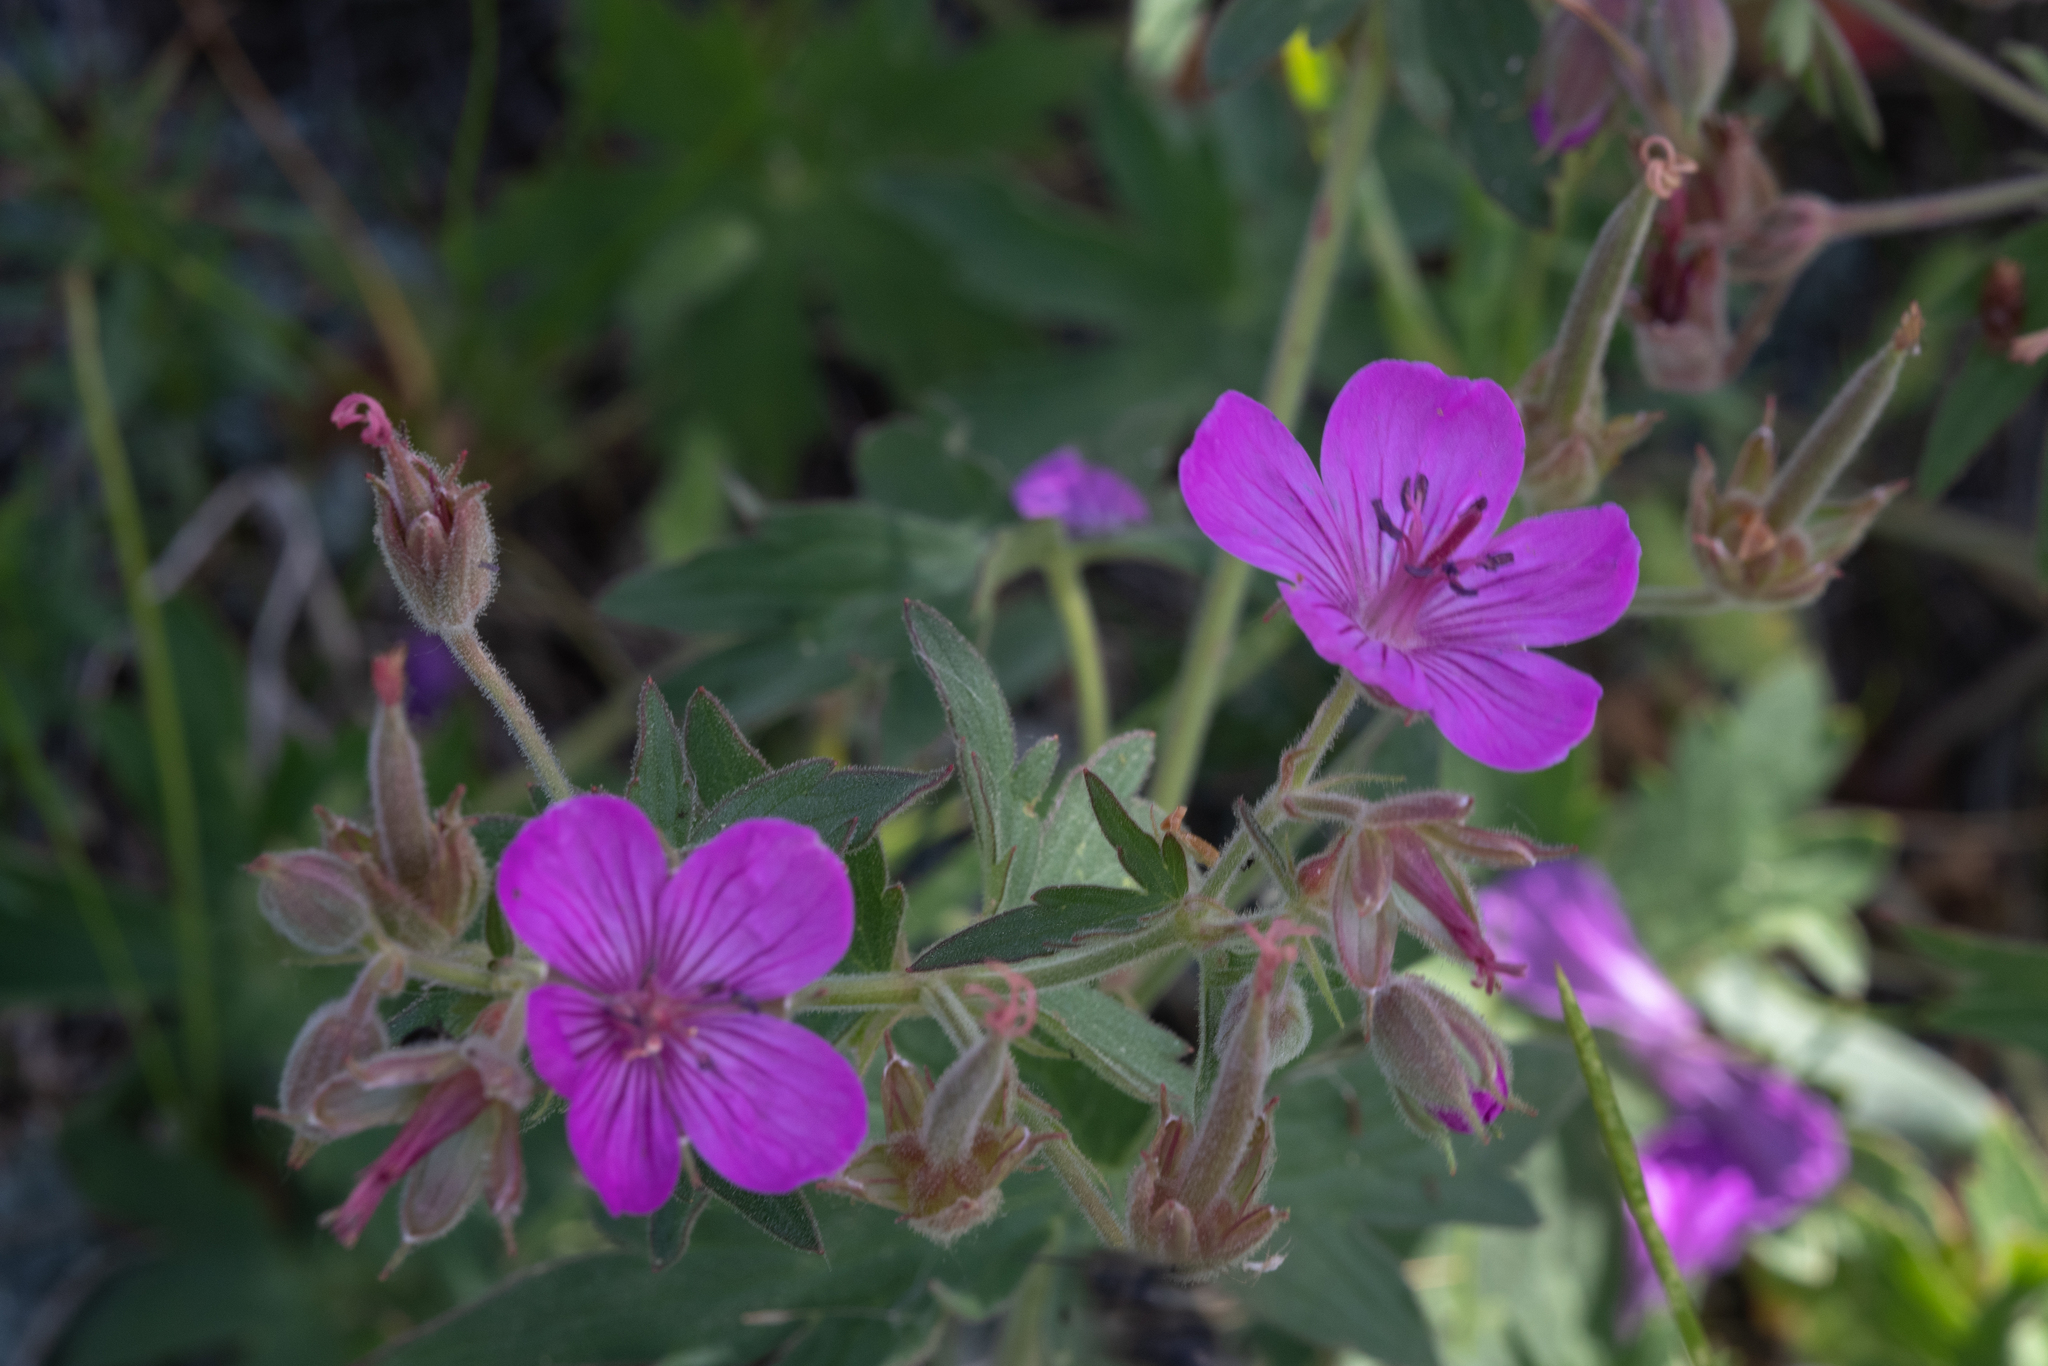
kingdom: Plantae
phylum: Tracheophyta
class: Magnoliopsida
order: Geraniales
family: Geraniaceae
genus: Geranium
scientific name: Geranium viscosissimum
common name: Purple geranium
